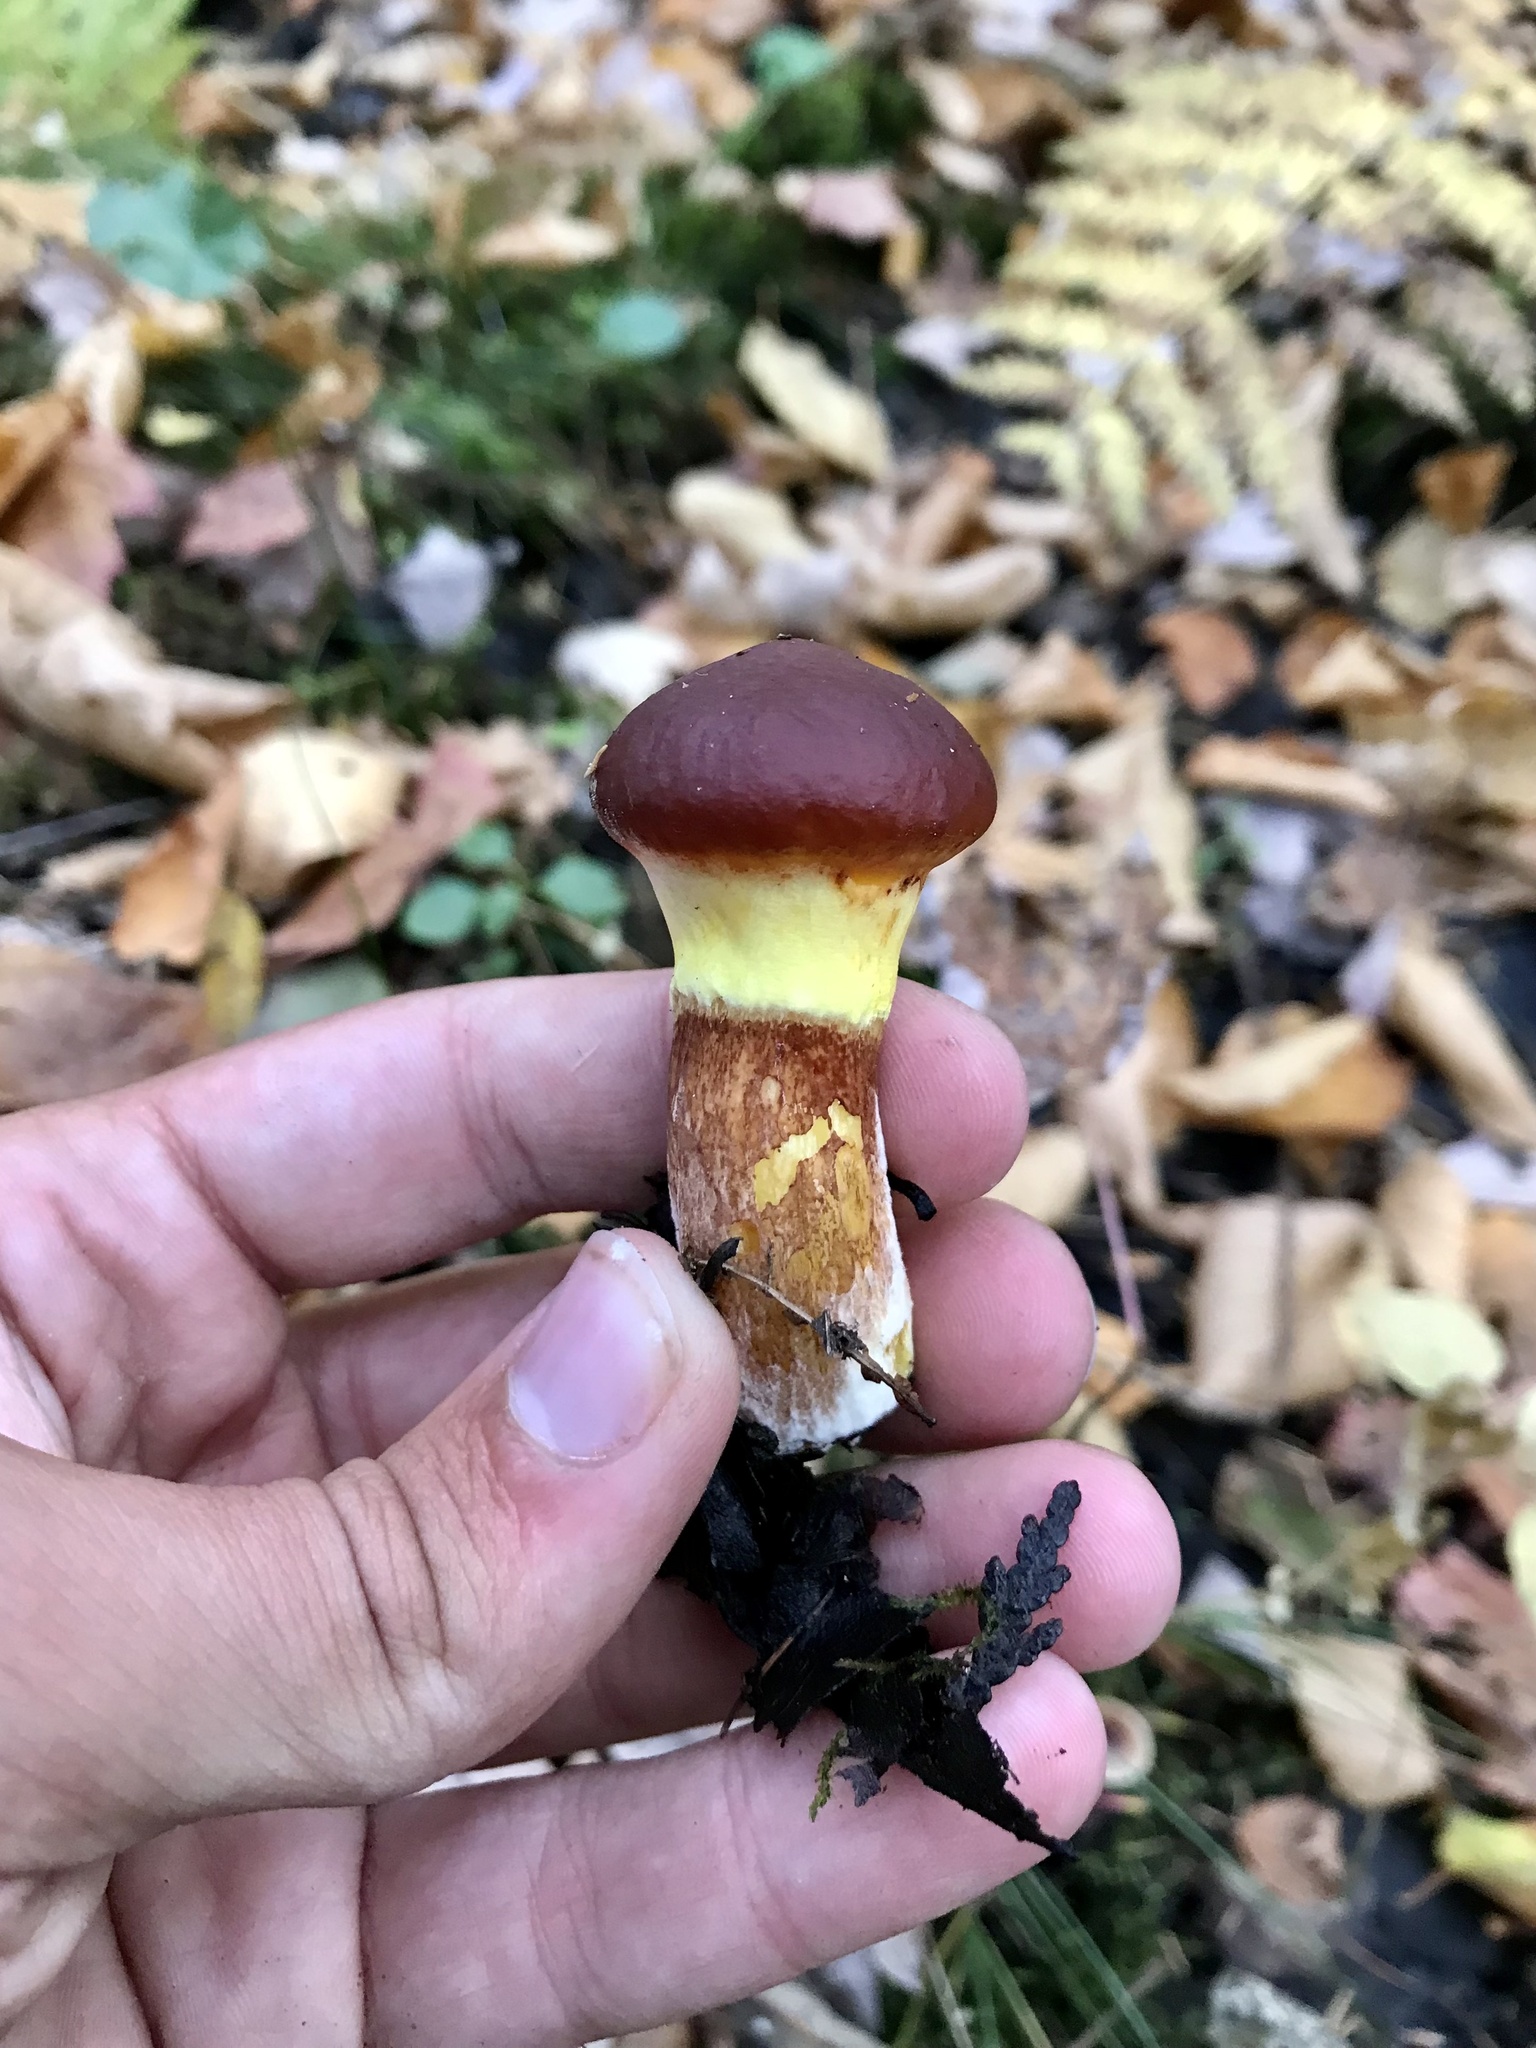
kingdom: Fungi
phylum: Basidiomycota
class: Agaricomycetes
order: Boletales
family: Suillaceae
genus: Suillus
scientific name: Suillus grevillei
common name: Larch bolete
